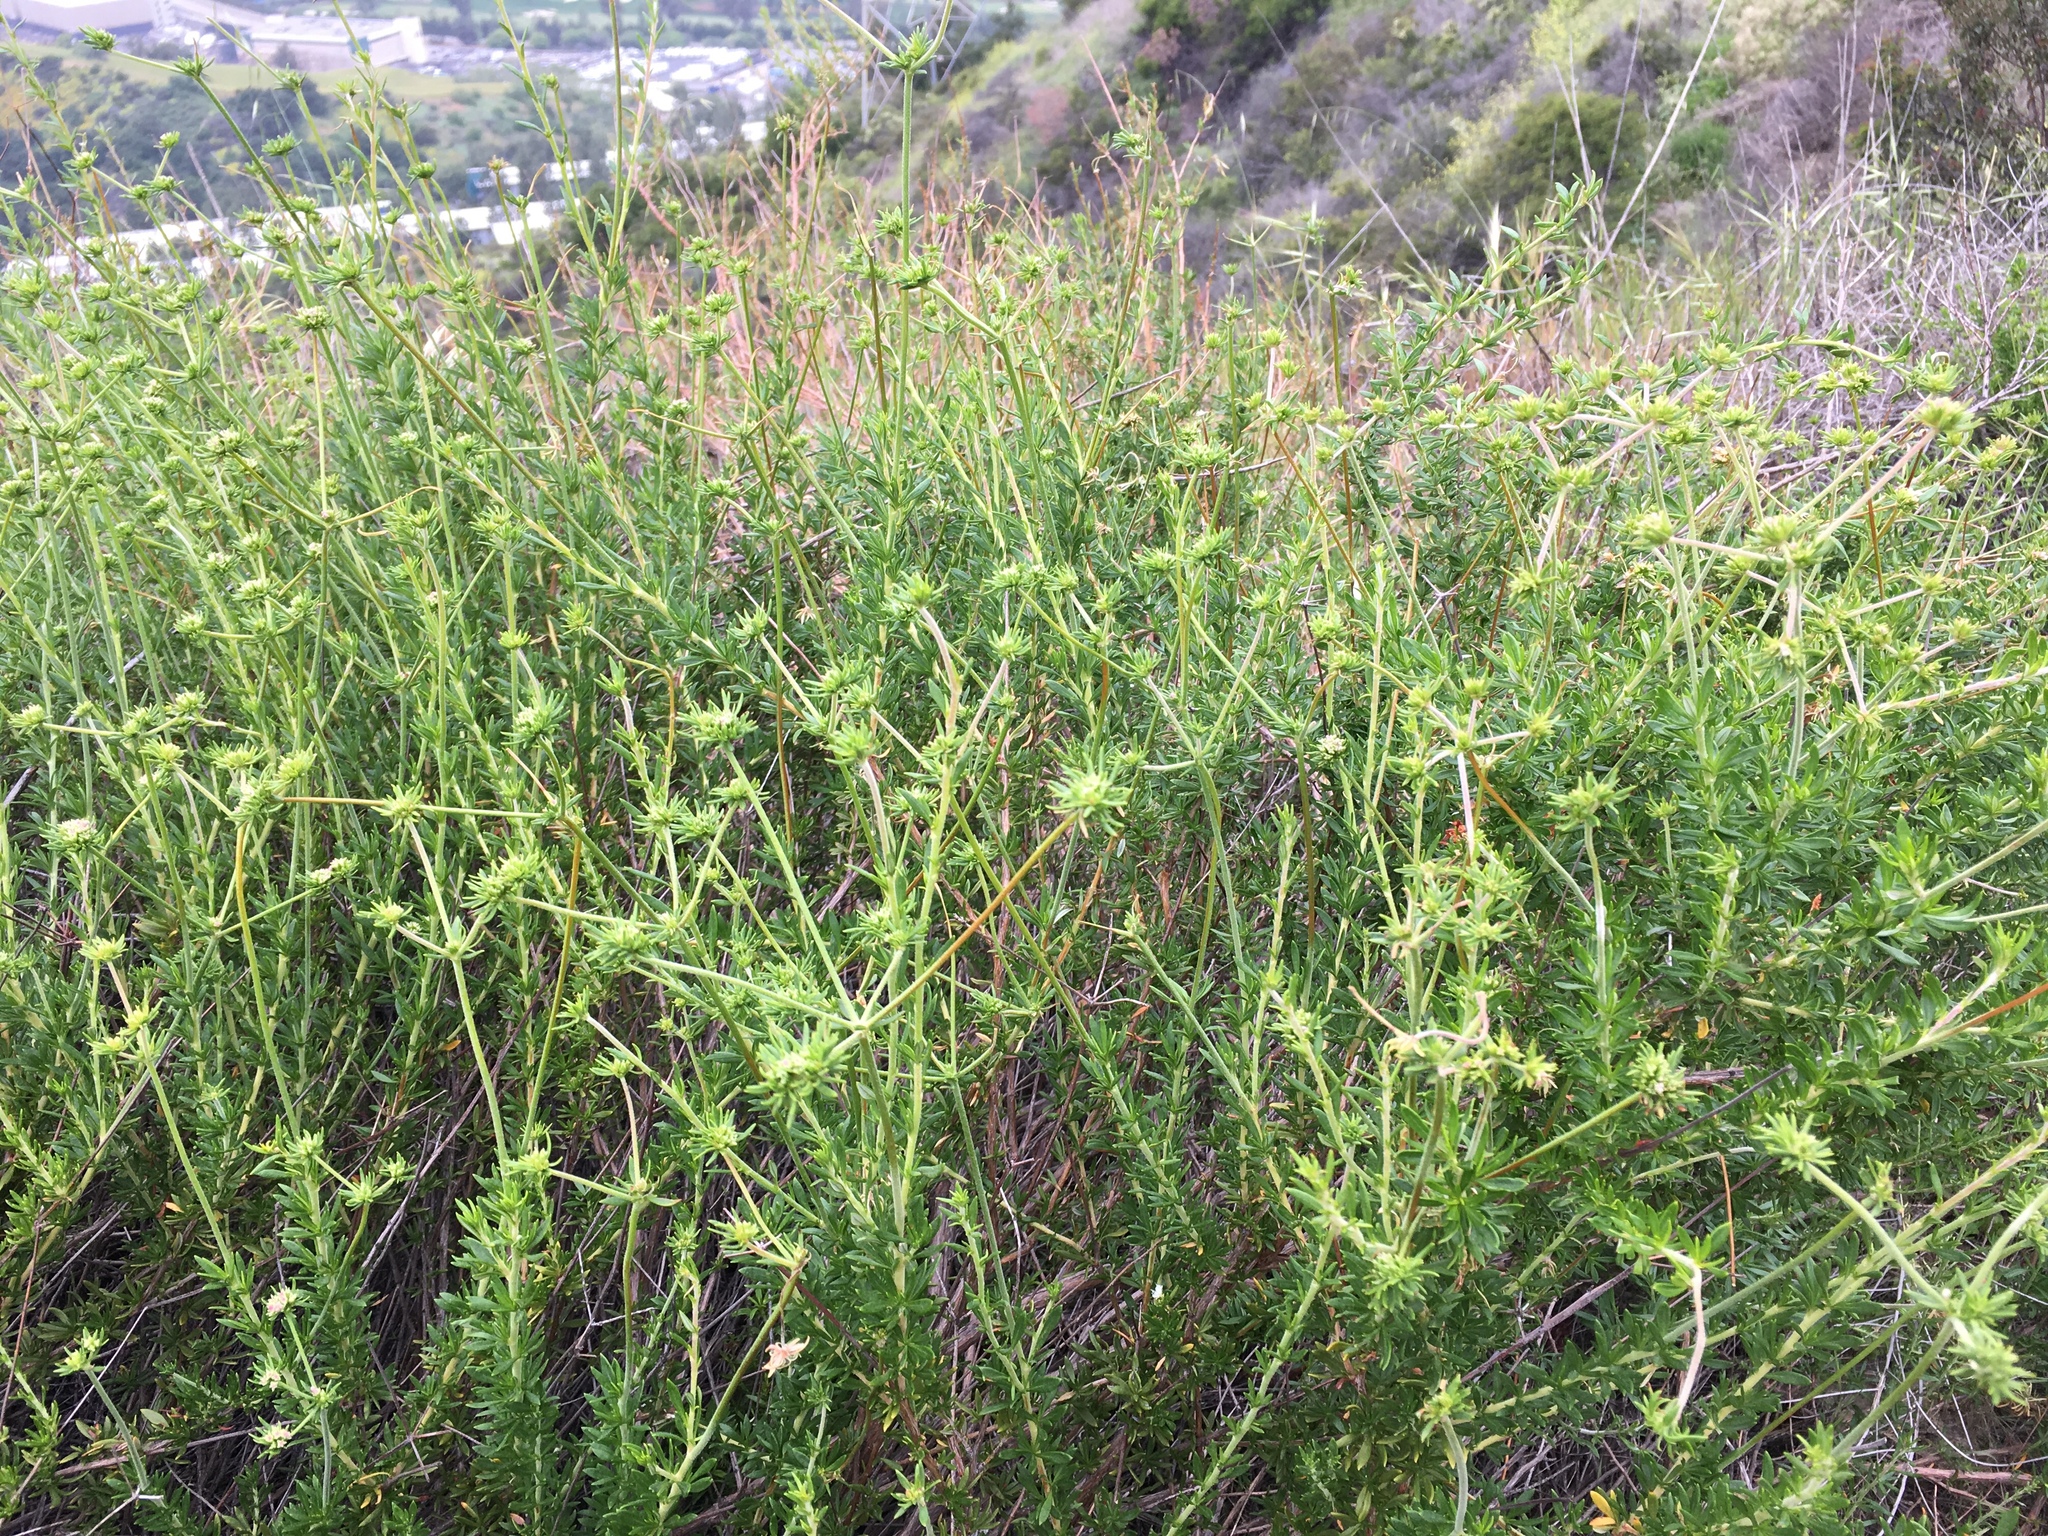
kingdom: Plantae
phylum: Tracheophyta
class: Magnoliopsida
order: Caryophyllales
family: Polygonaceae
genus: Eriogonum
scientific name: Eriogonum fasciculatum
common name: California wild buckwheat
